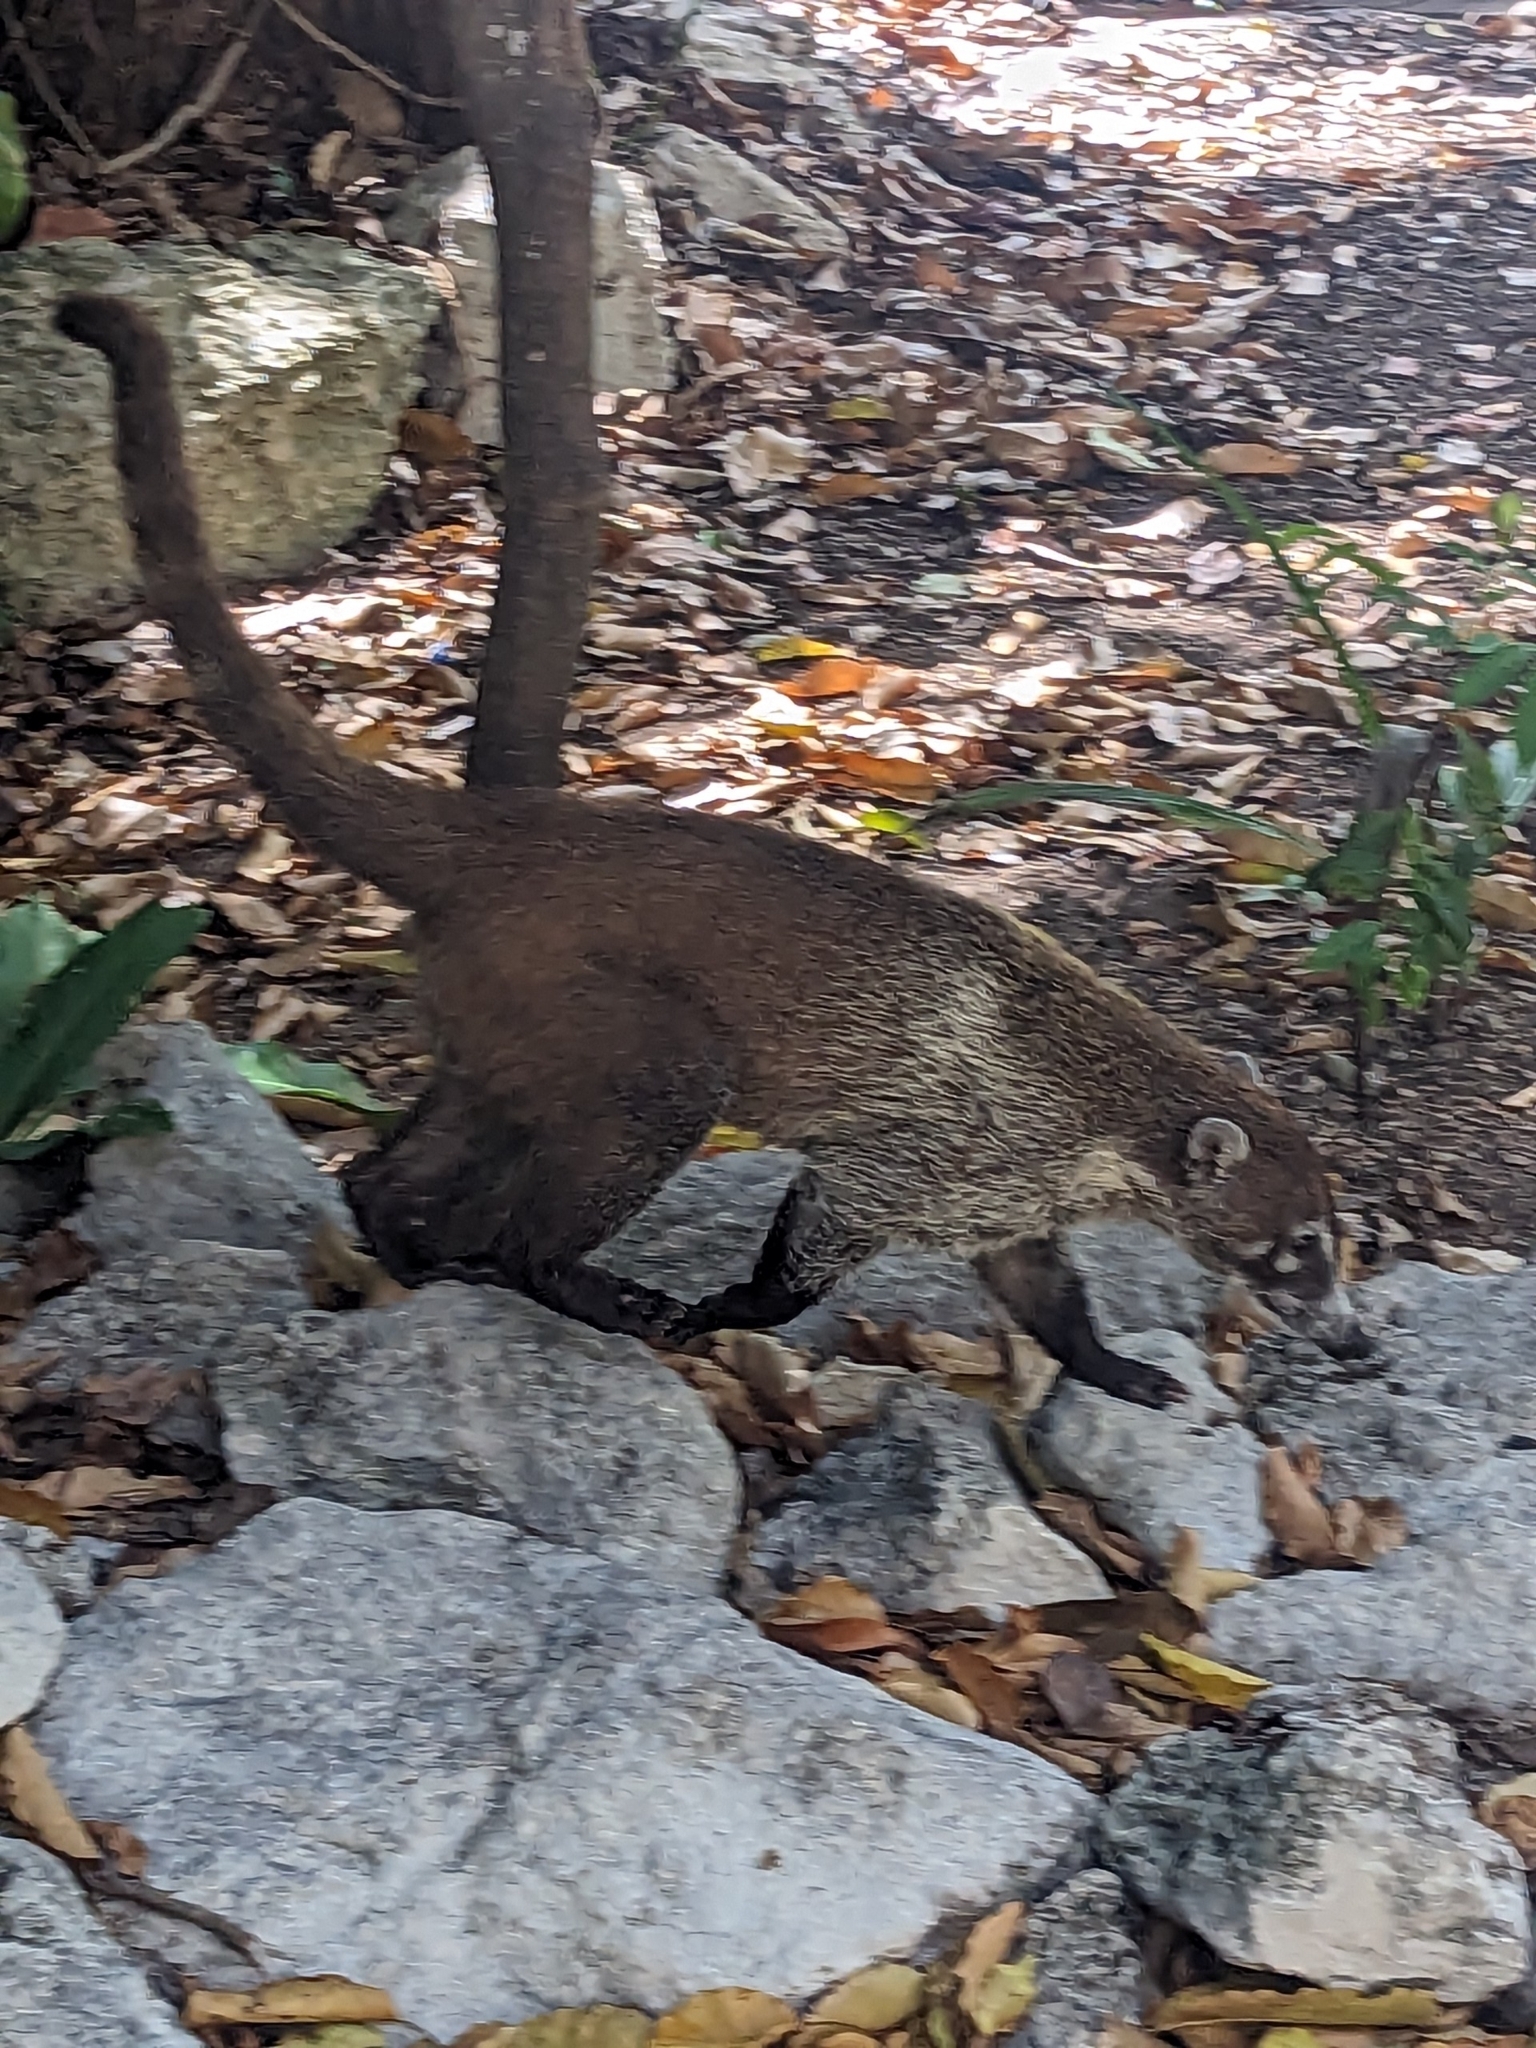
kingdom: Animalia
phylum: Chordata
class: Mammalia
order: Carnivora
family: Procyonidae
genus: Nasua
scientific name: Nasua narica
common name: White-nosed coati
